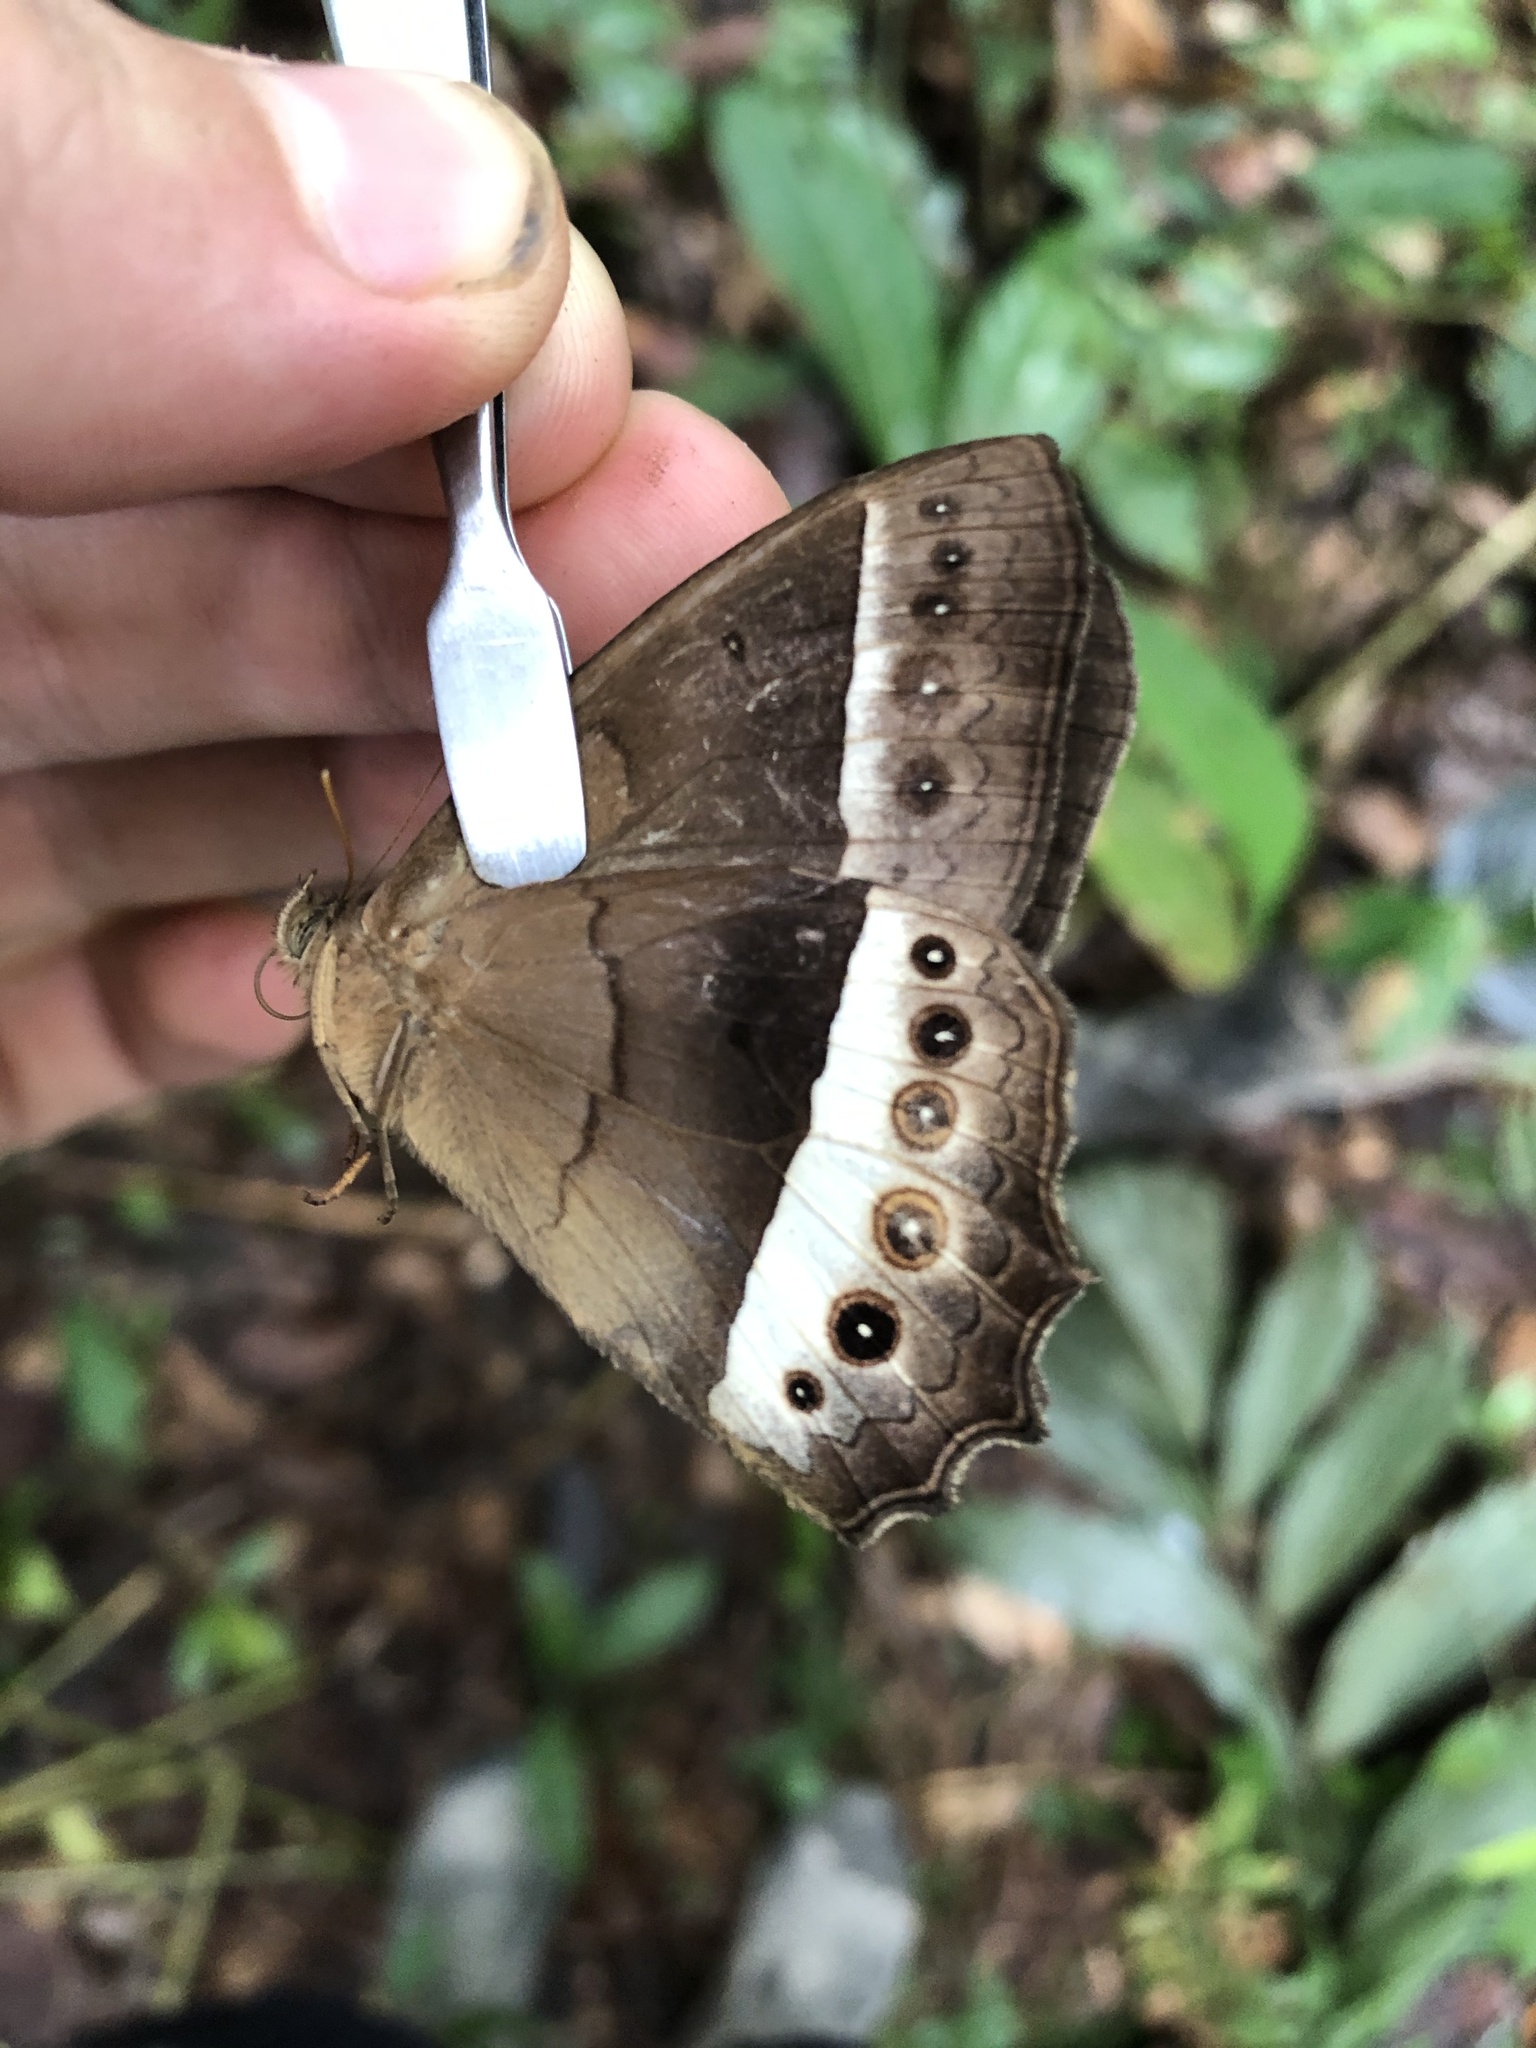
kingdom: Animalia
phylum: Arthropoda
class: Insecta
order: Lepidoptera
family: Nymphalidae
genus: Taygetis
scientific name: Taygetis sylvia
